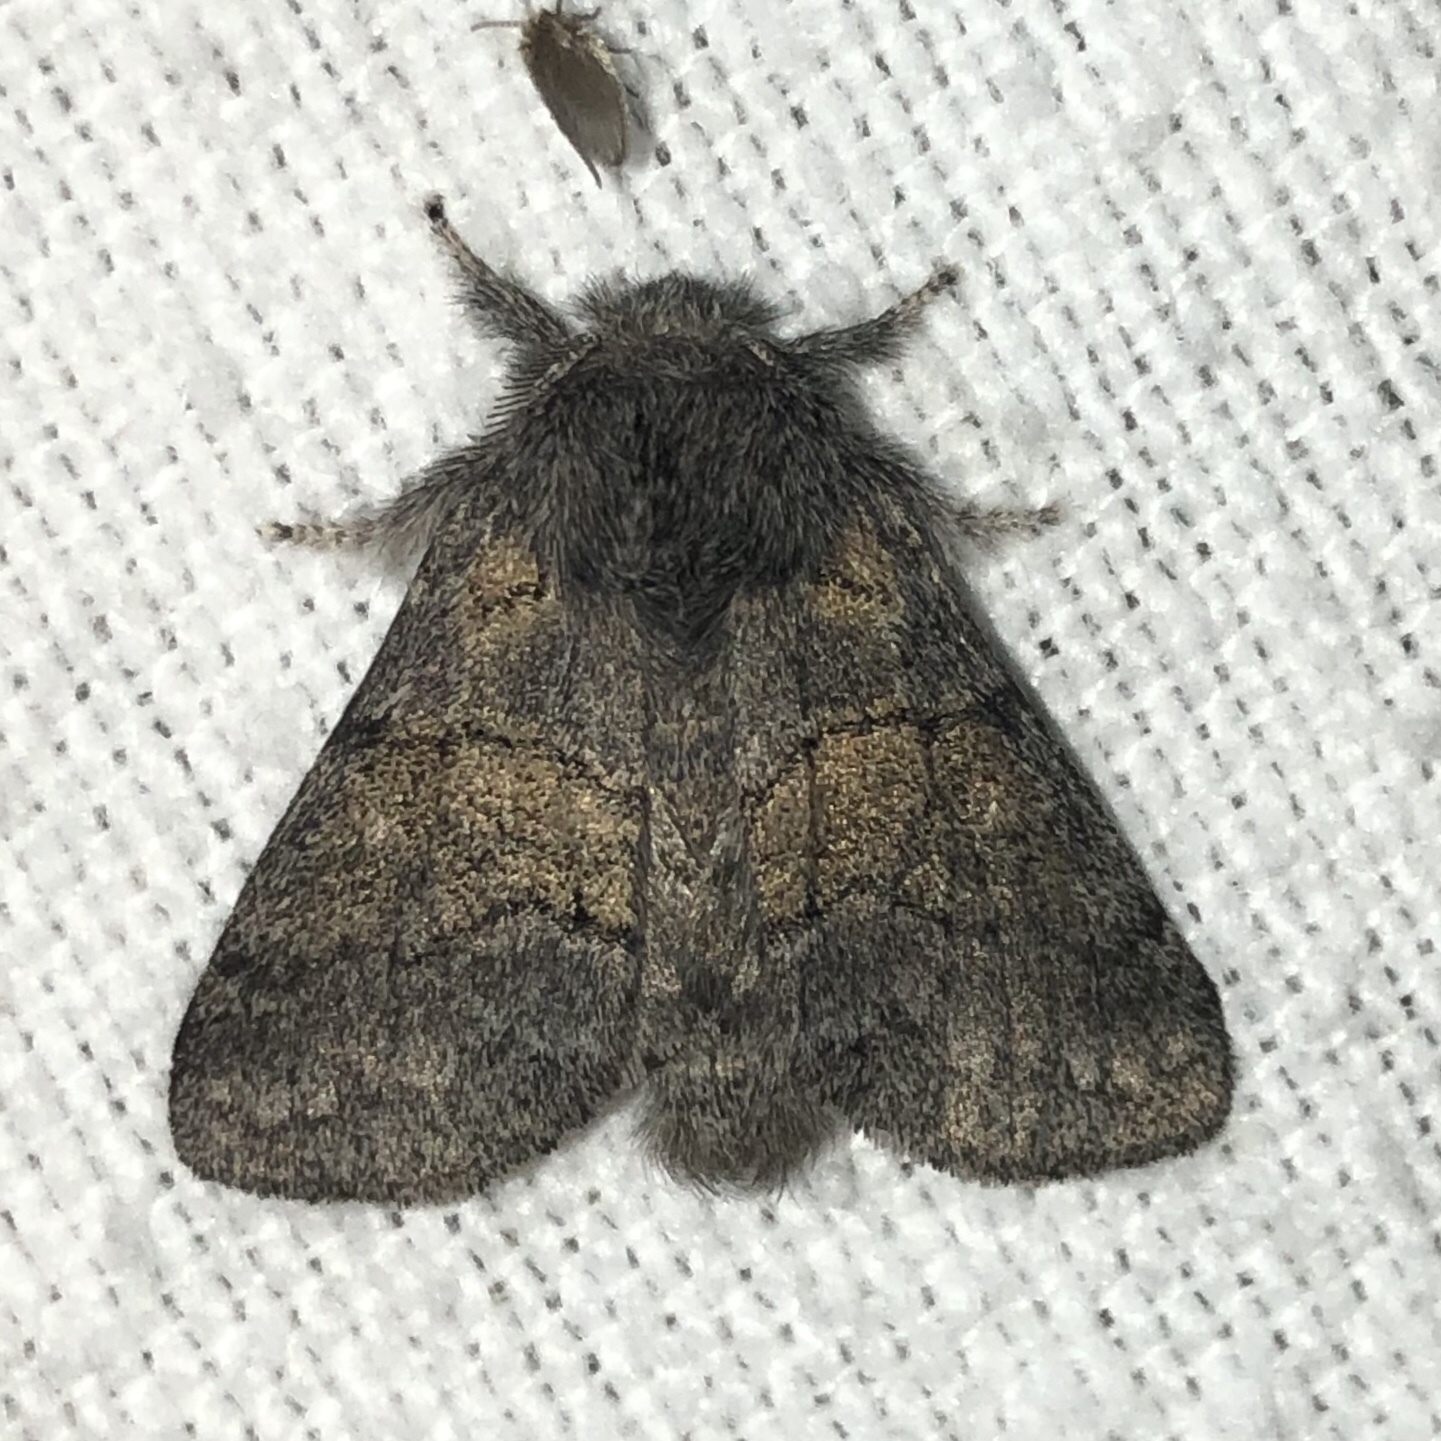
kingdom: Animalia
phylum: Arthropoda
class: Insecta
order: Lepidoptera
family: Notodontidae
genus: Gluphisia
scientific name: Gluphisia septentrionis
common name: Common gluphisia
